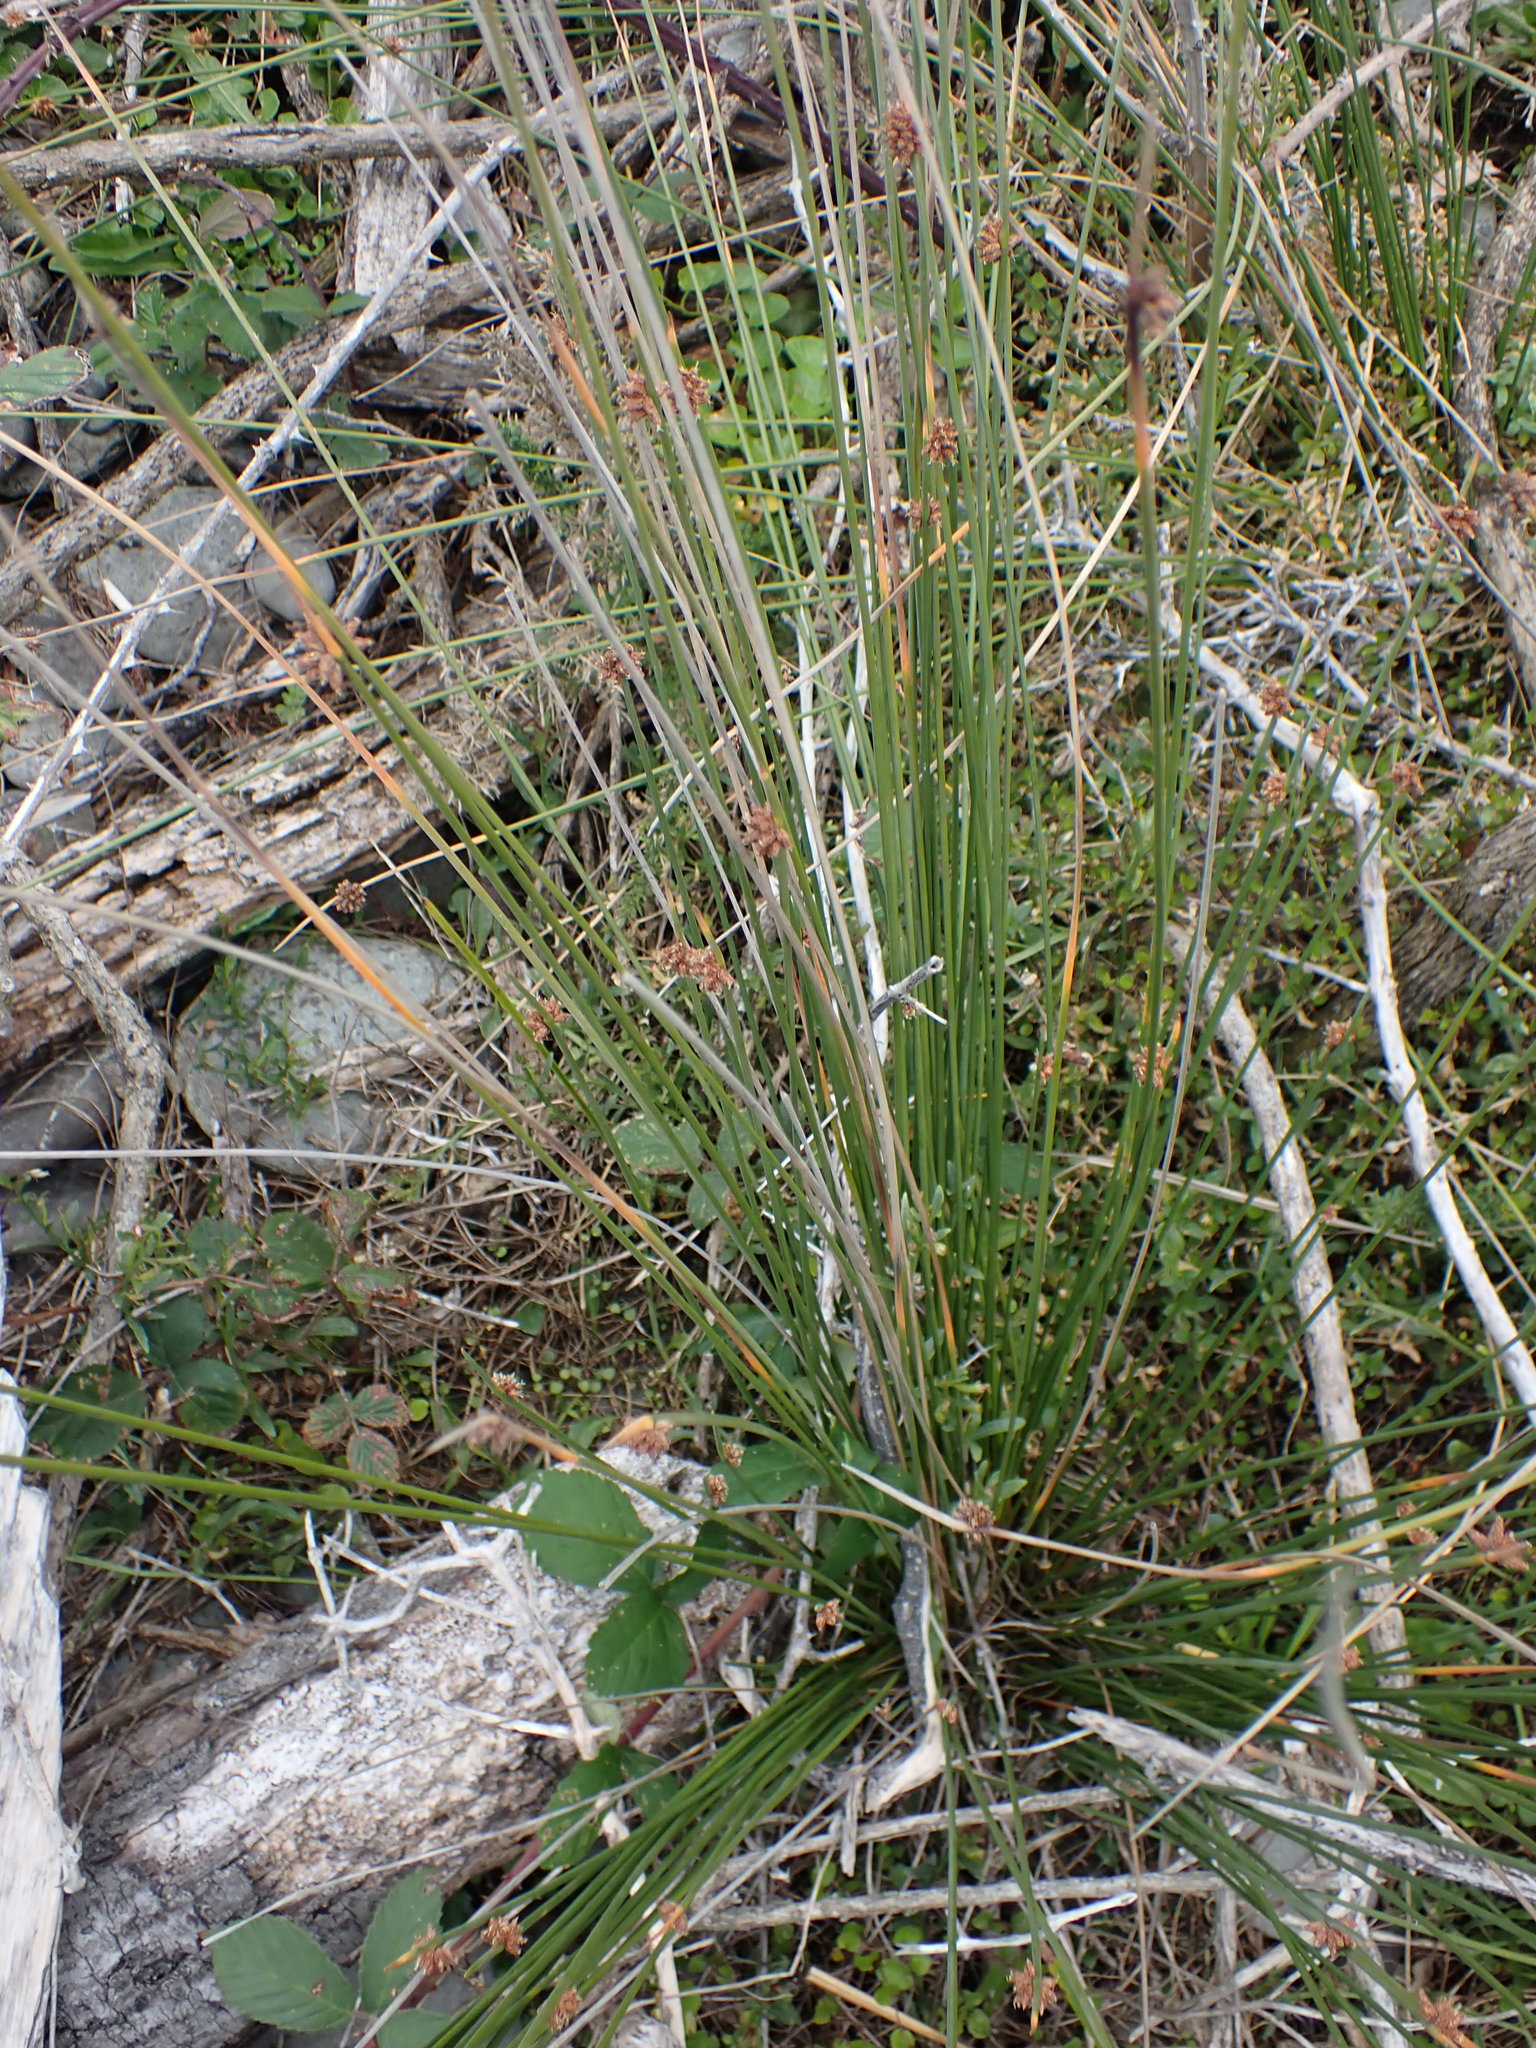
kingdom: Plantae
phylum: Tracheophyta
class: Liliopsida
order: Poales
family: Cyperaceae
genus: Ficinia
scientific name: Ficinia nodosa
